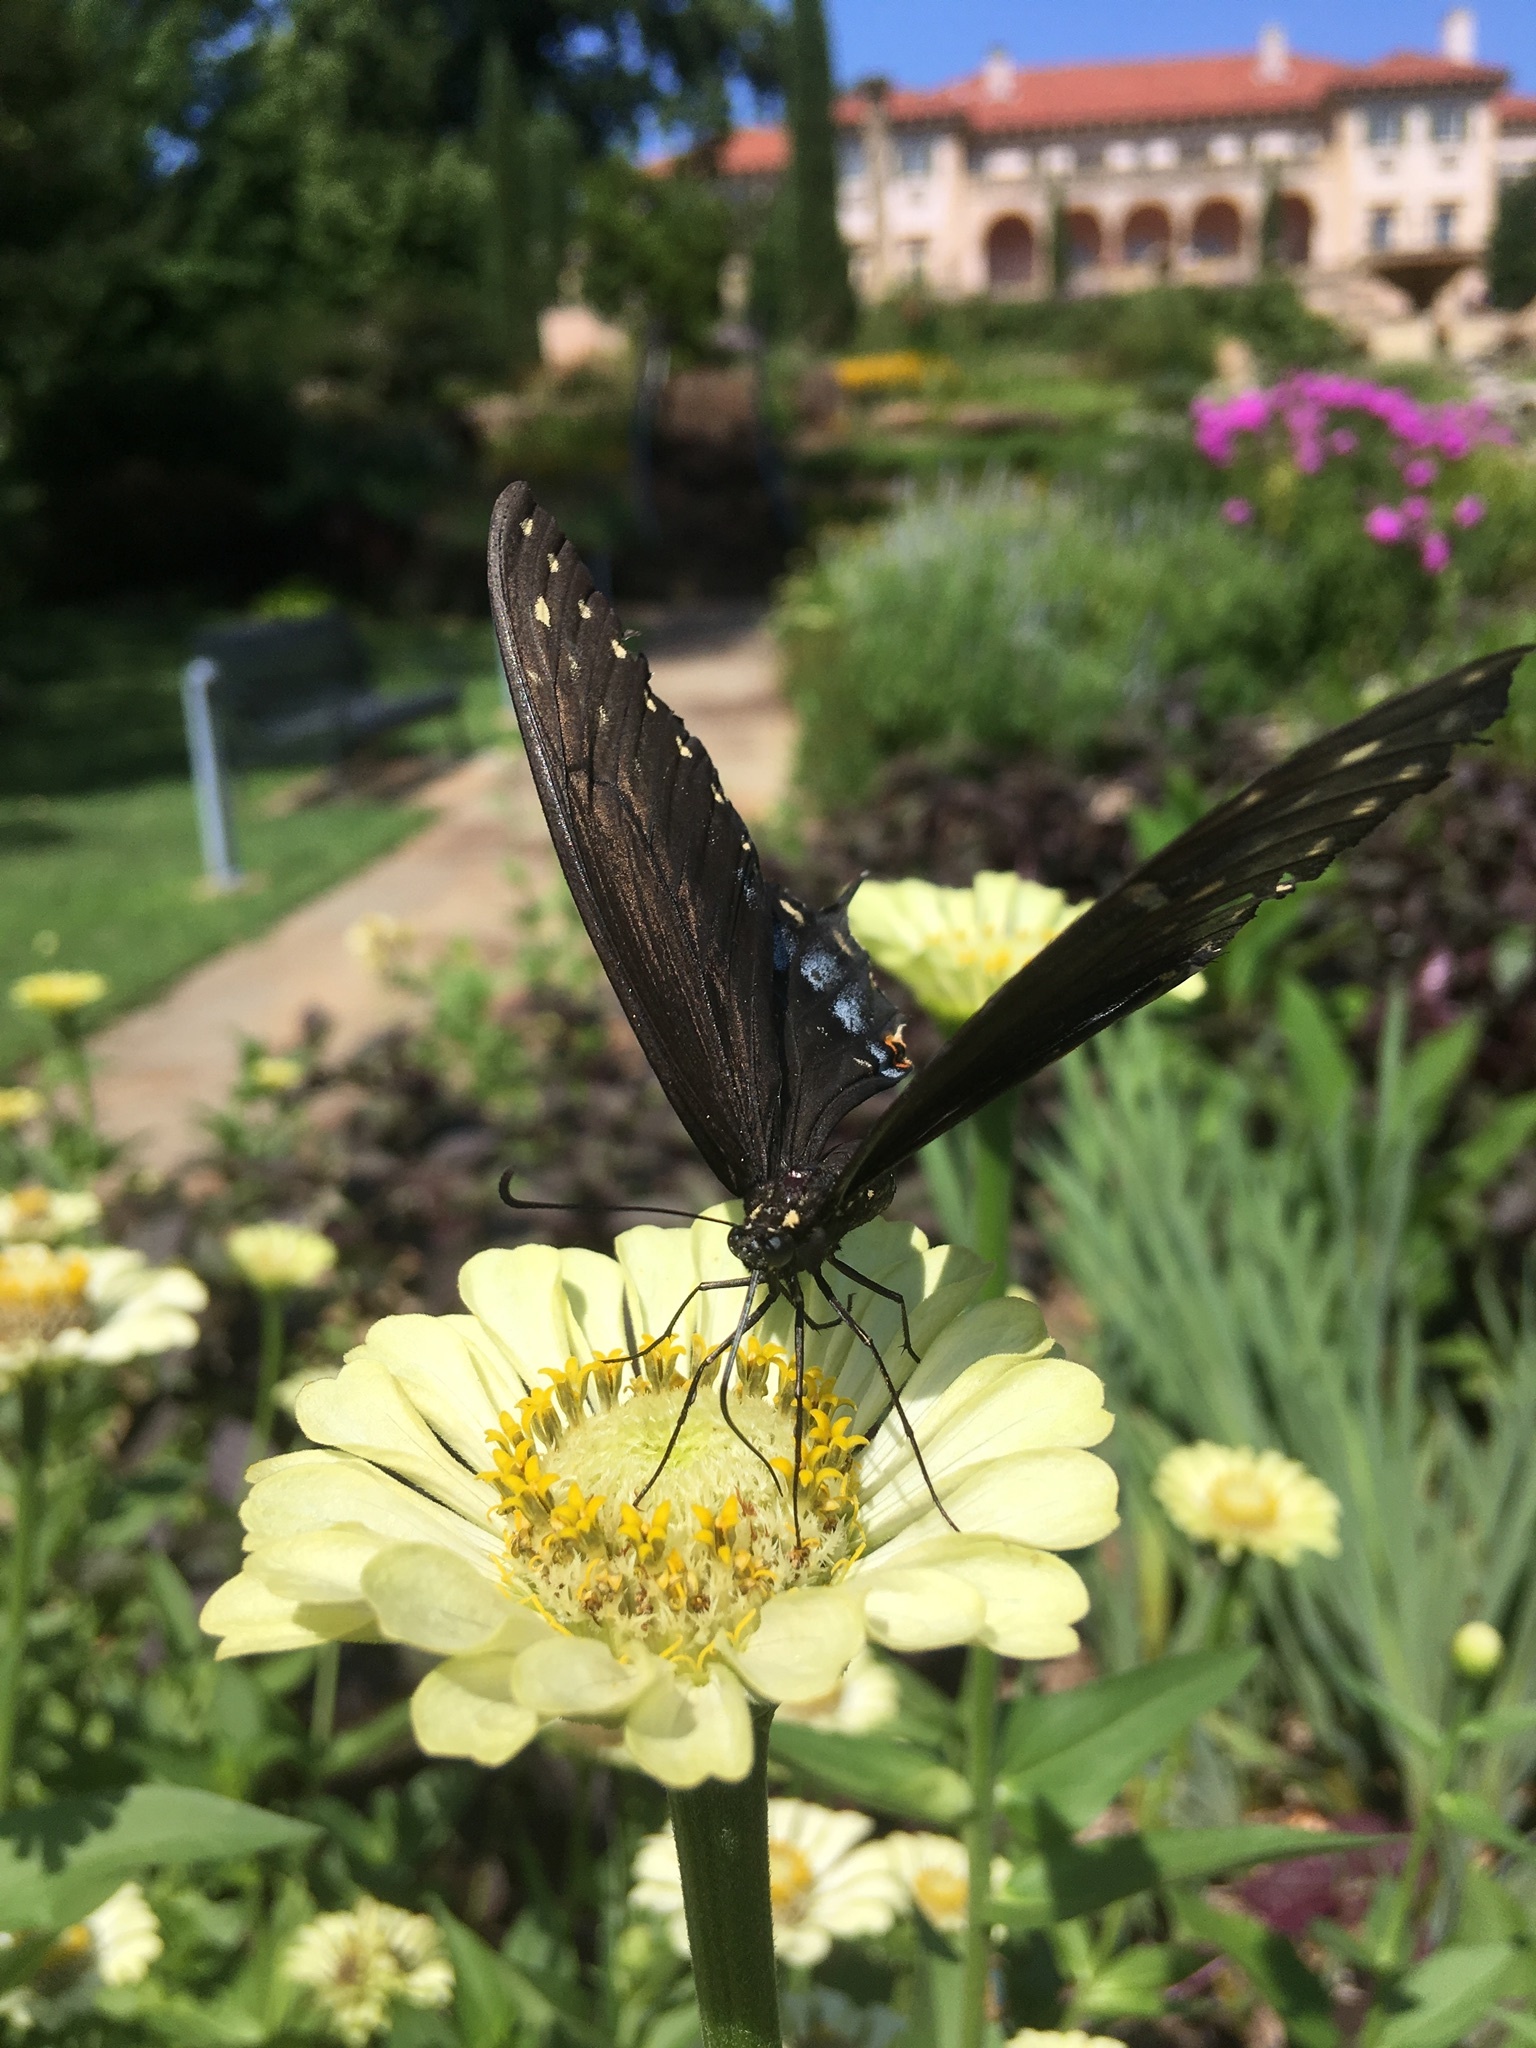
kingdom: Animalia
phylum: Arthropoda
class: Insecta
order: Lepidoptera
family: Papilionidae
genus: Papilio
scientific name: Papilio polyxenes
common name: Black swallowtail
